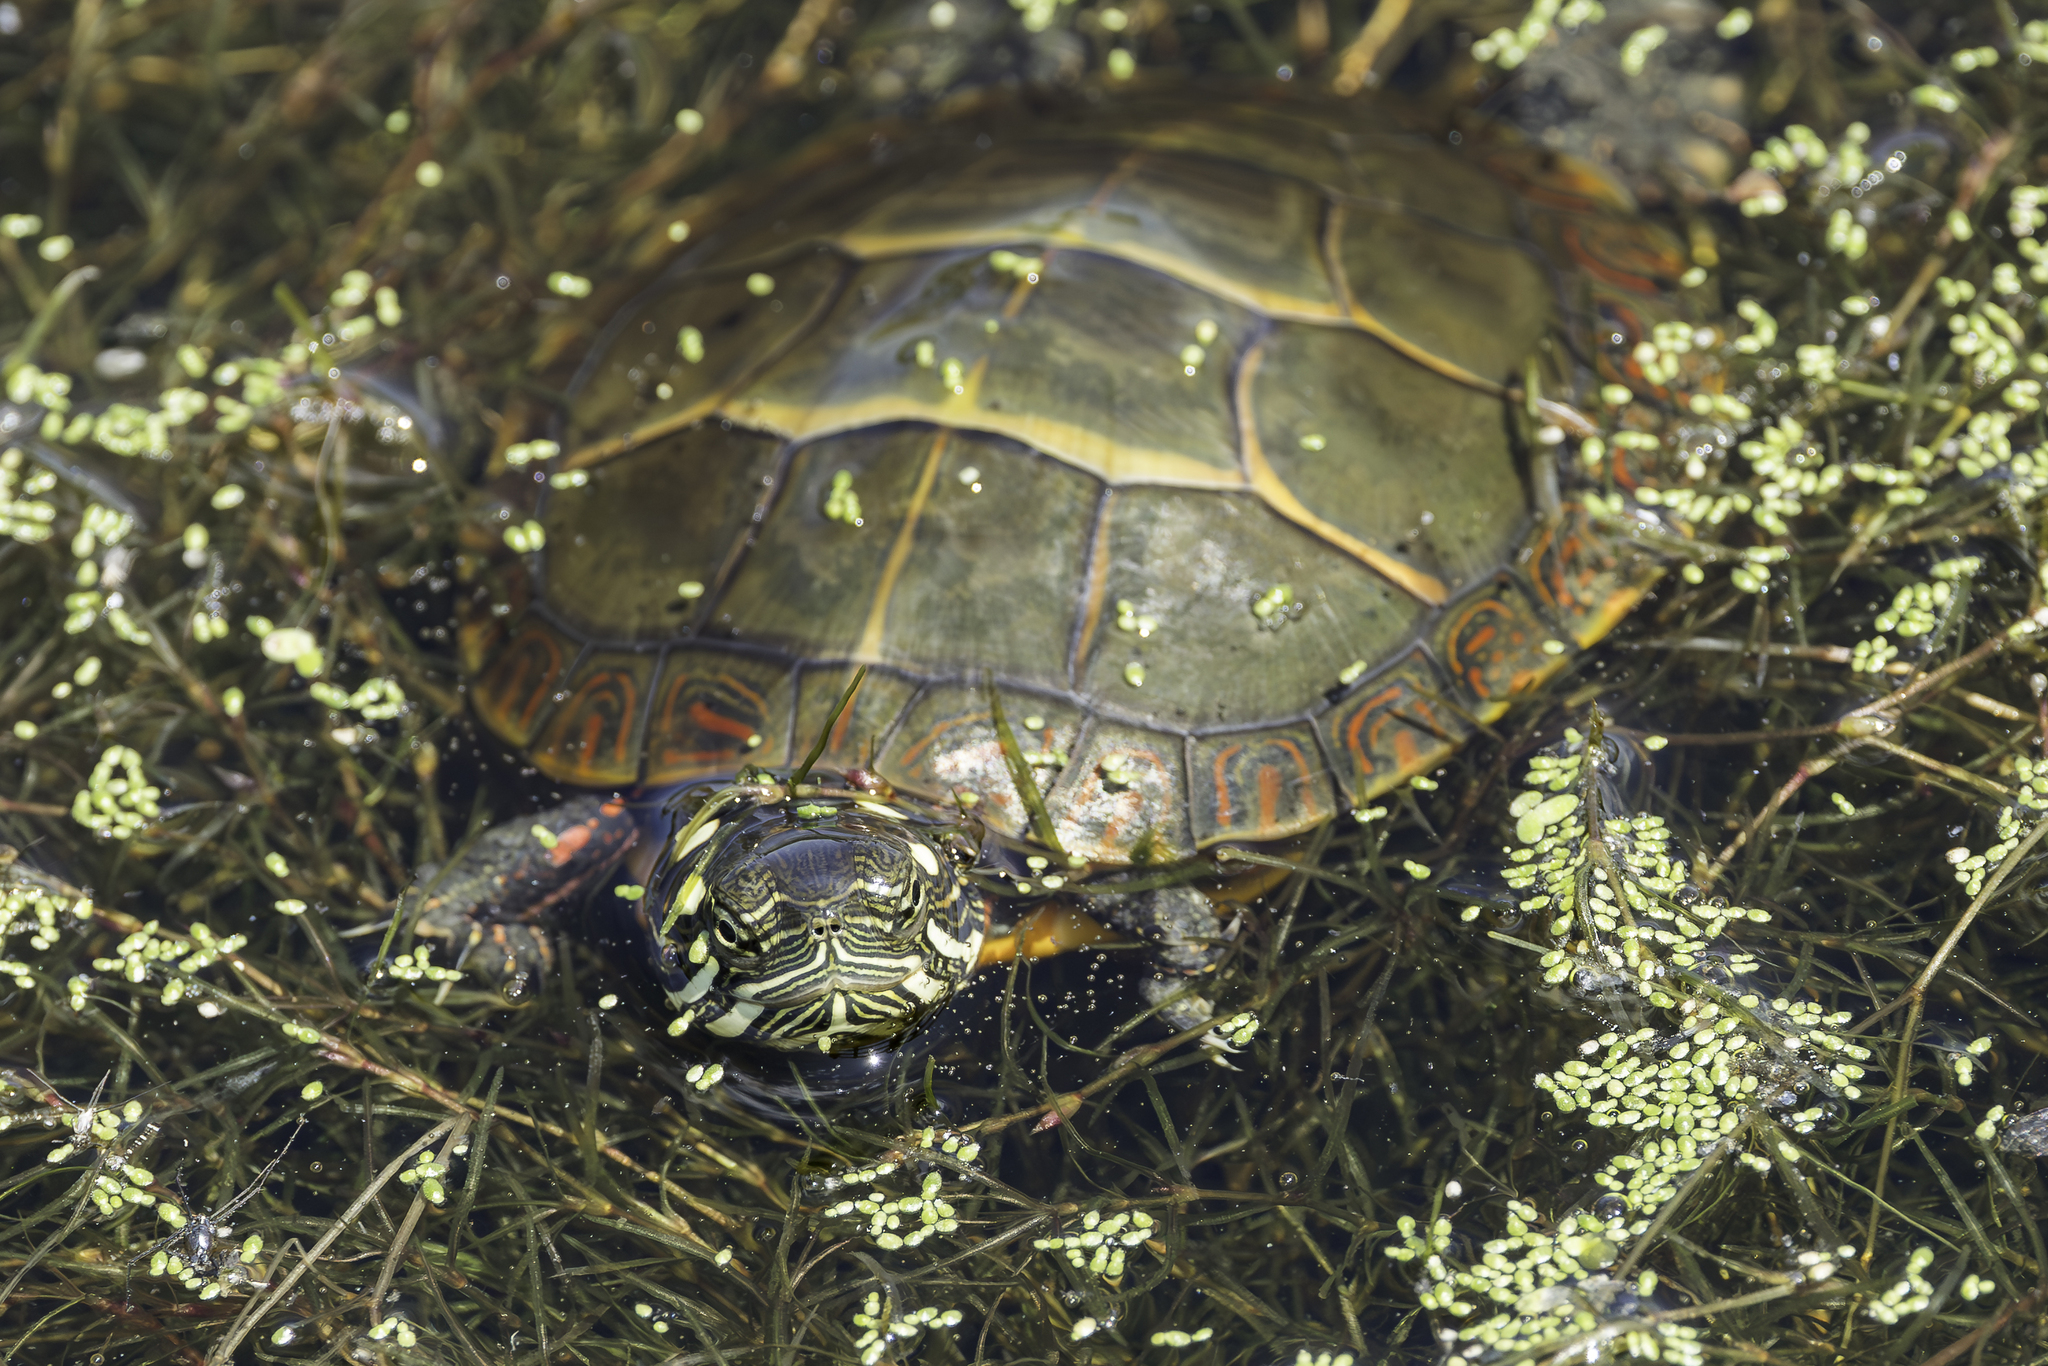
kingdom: Animalia
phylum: Chordata
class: Testudines
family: Emydidae
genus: Chrysemys
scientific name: Chrysemys picta
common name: Painted turtle
